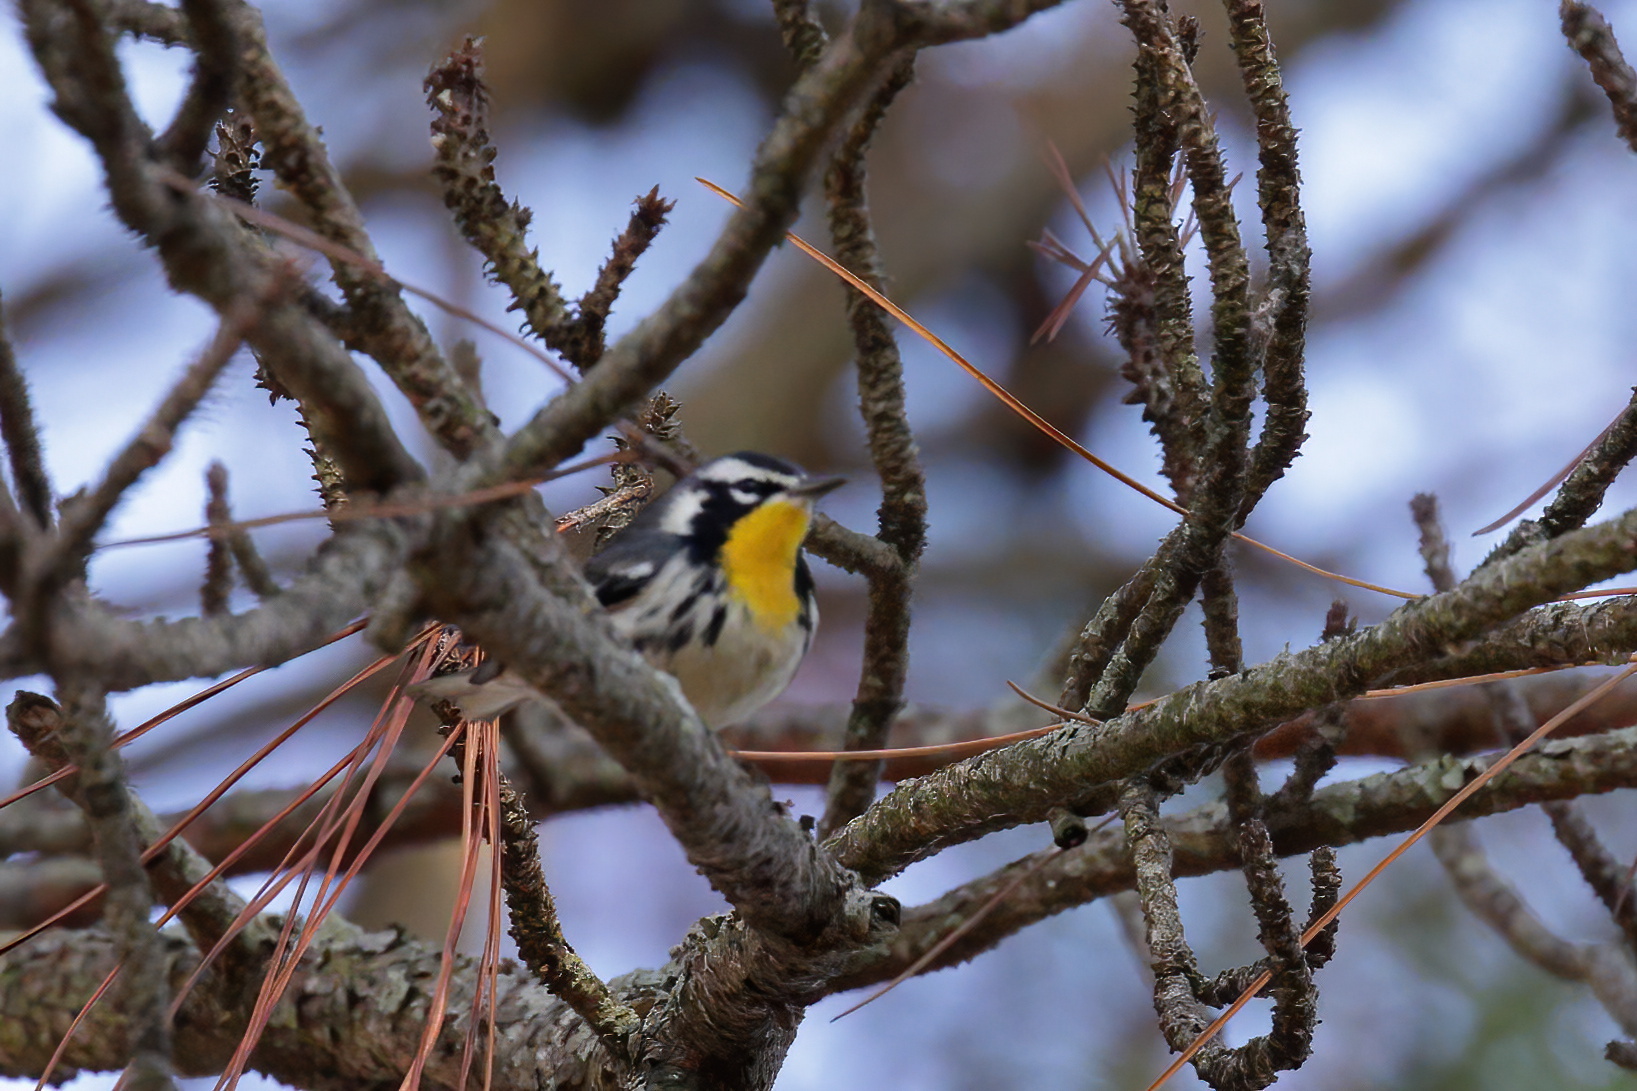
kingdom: Animalia
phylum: Chordata
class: Aves
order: Passeriformes
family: Parulidae
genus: Setophaga
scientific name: Setophaga dominica
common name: Yellow-throated warbler
